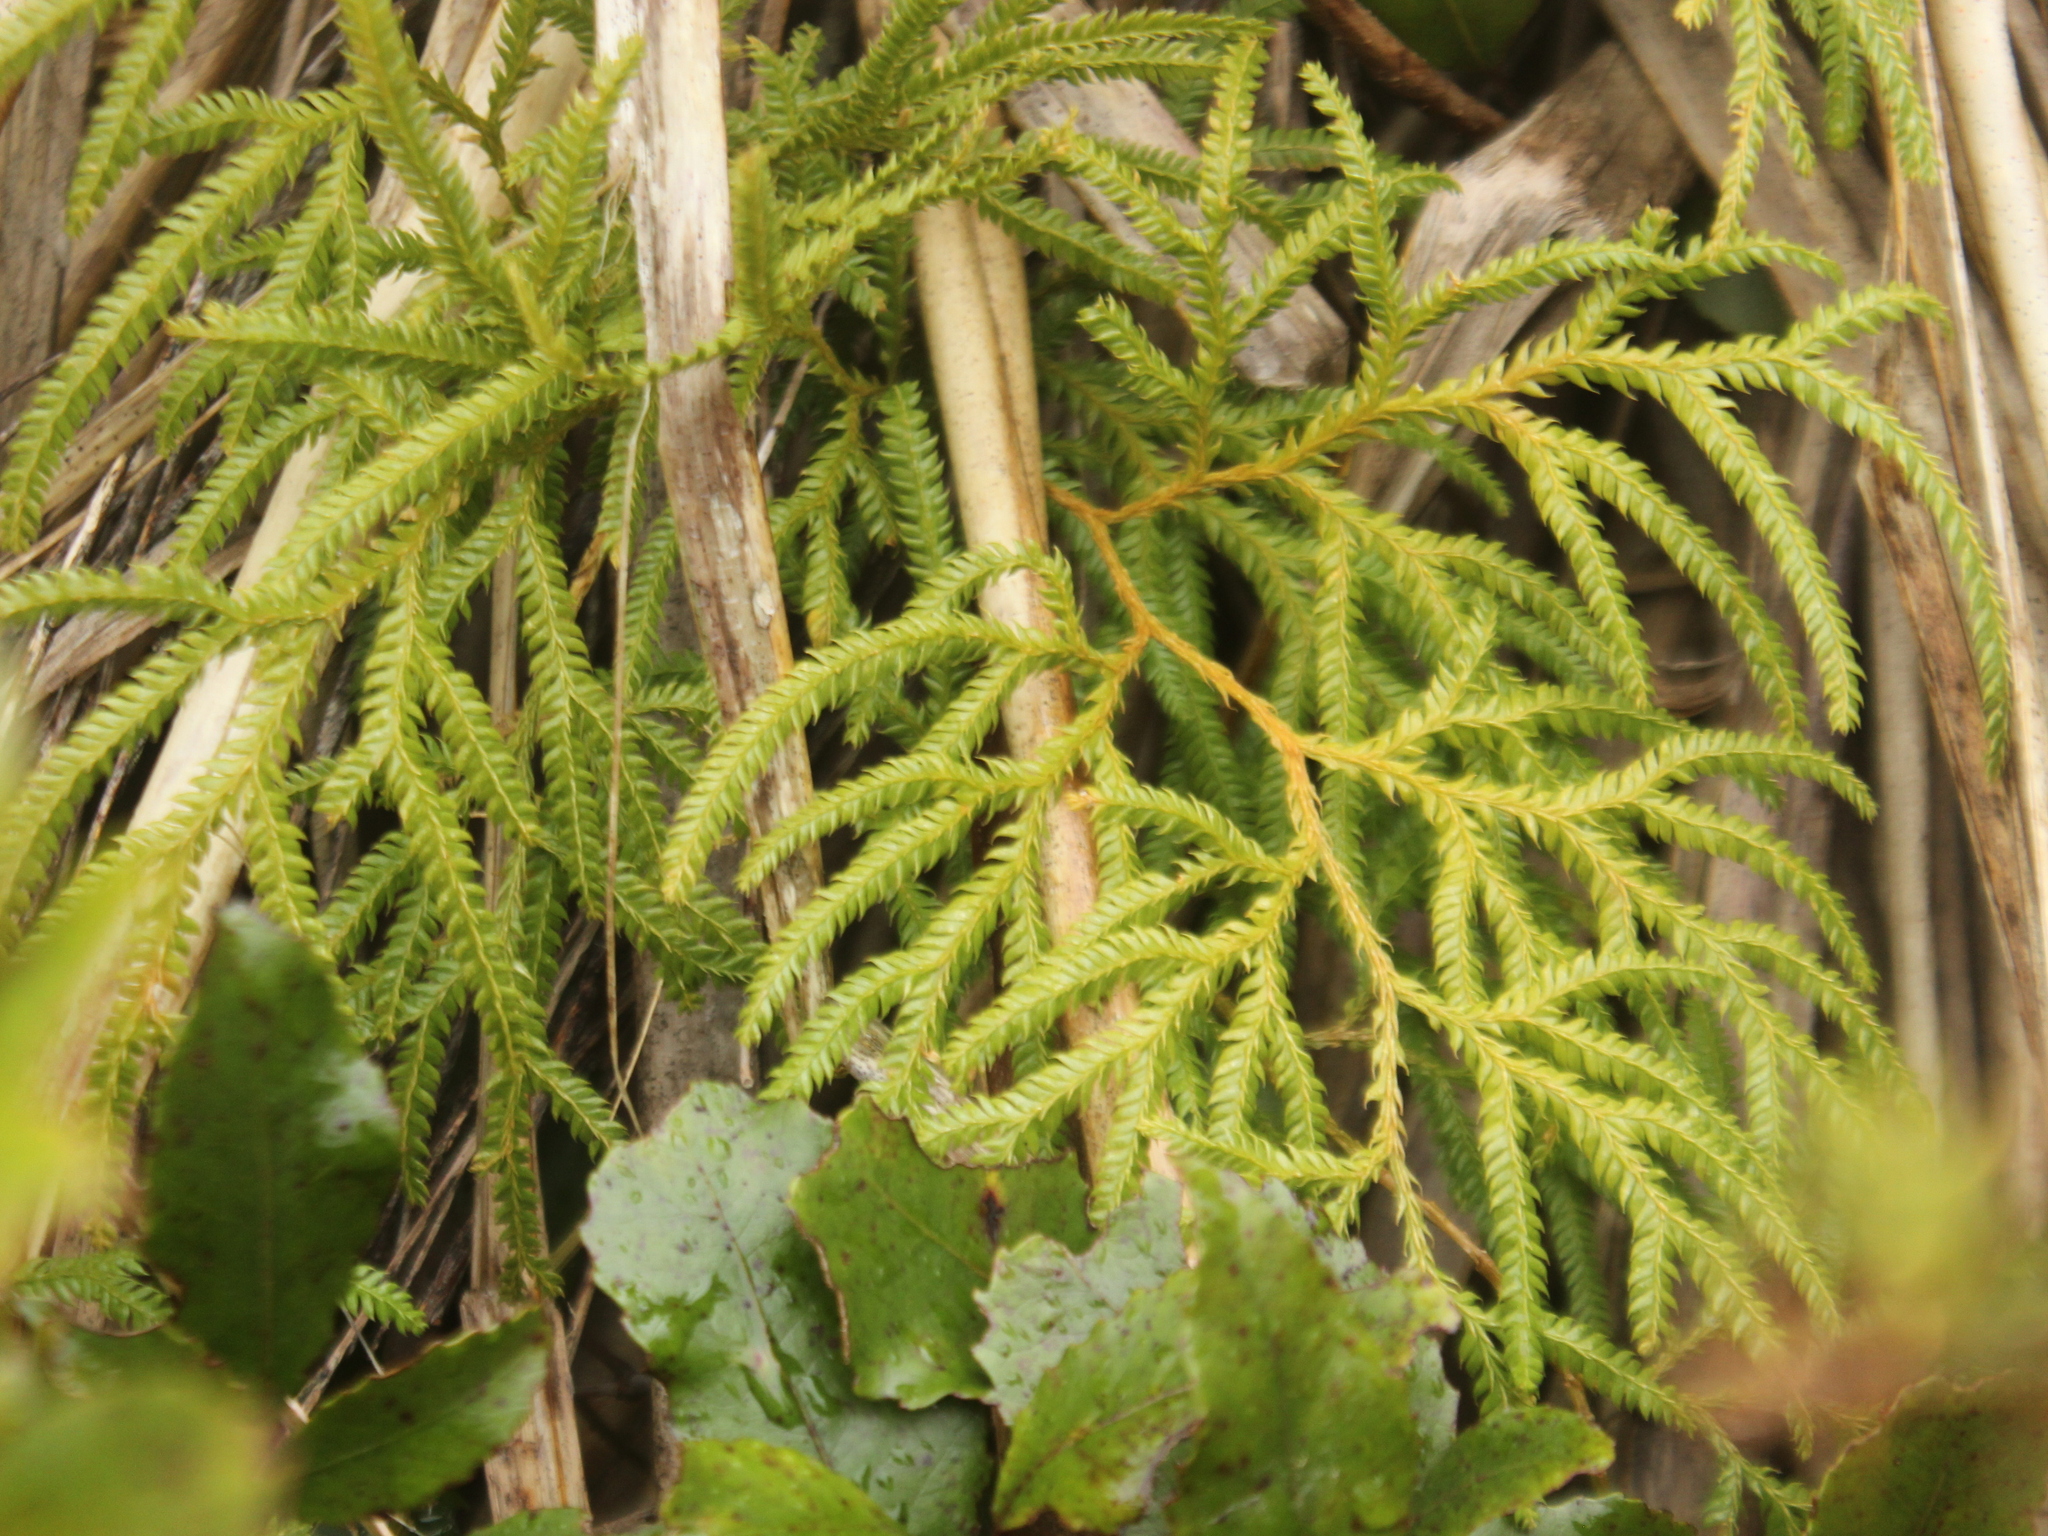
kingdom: Plantae
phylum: Tracheophyta
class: Lycopodiopsida
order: Lycopodiales
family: Lycopodiaceae
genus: Lycopodium
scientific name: Lycopodium volubile
